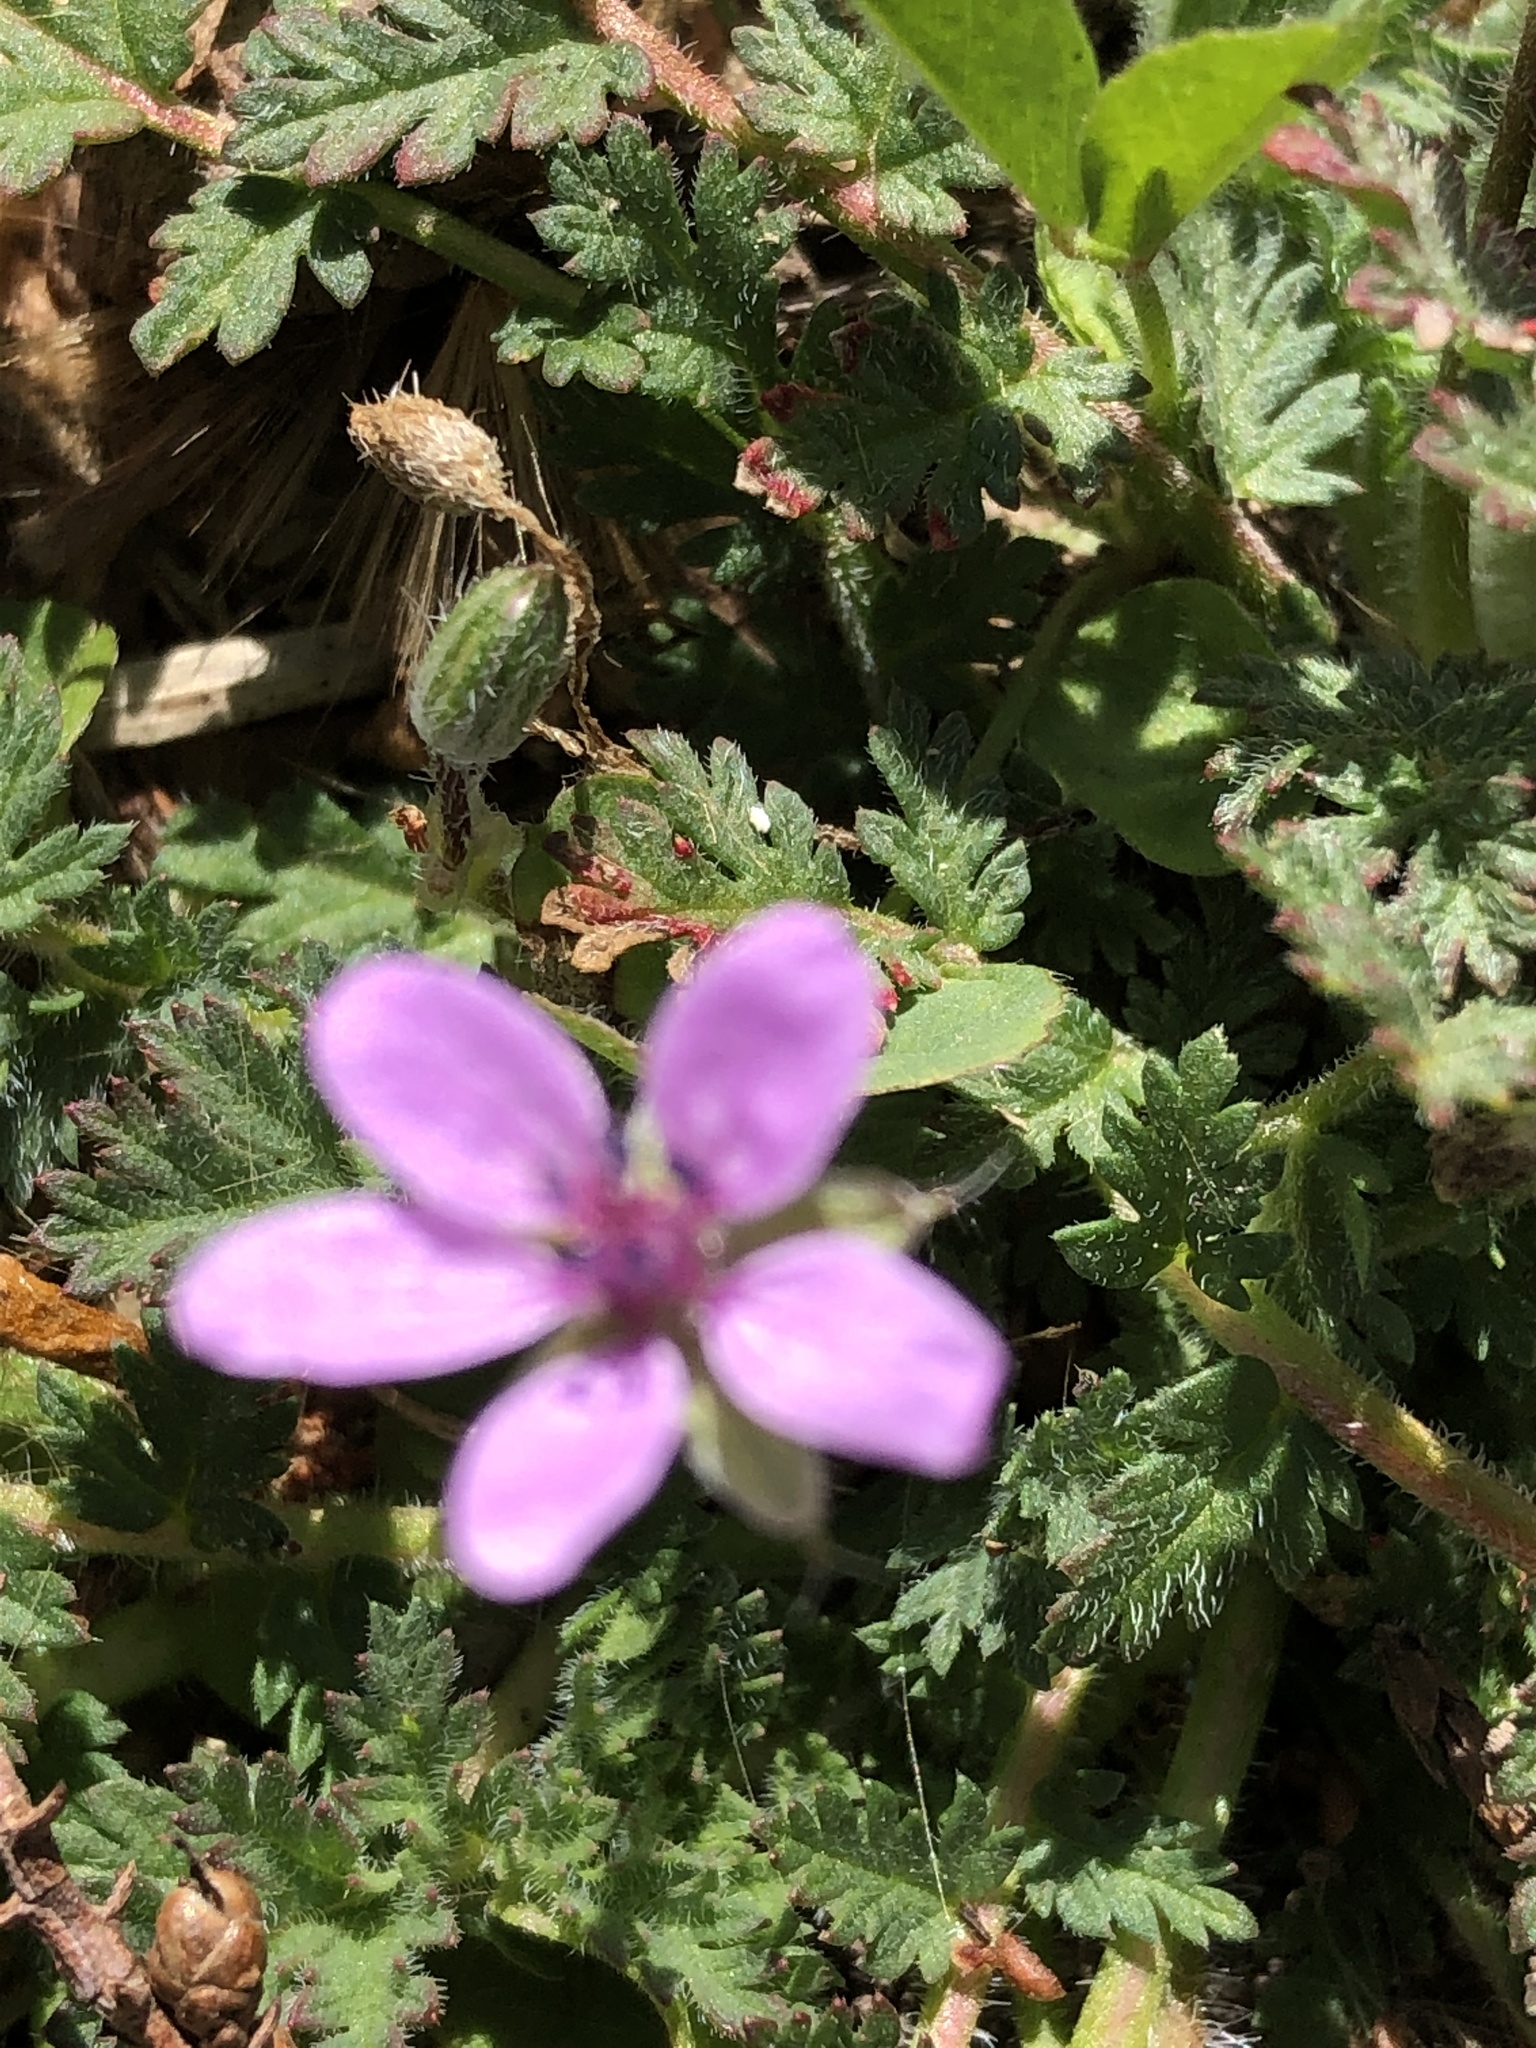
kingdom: Plantae
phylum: Tracheophyta
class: Magnoliopsida
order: Geraniales
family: Geraniaceae
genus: Erodium
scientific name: Erodium cicutarium
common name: Common stork's-bill
